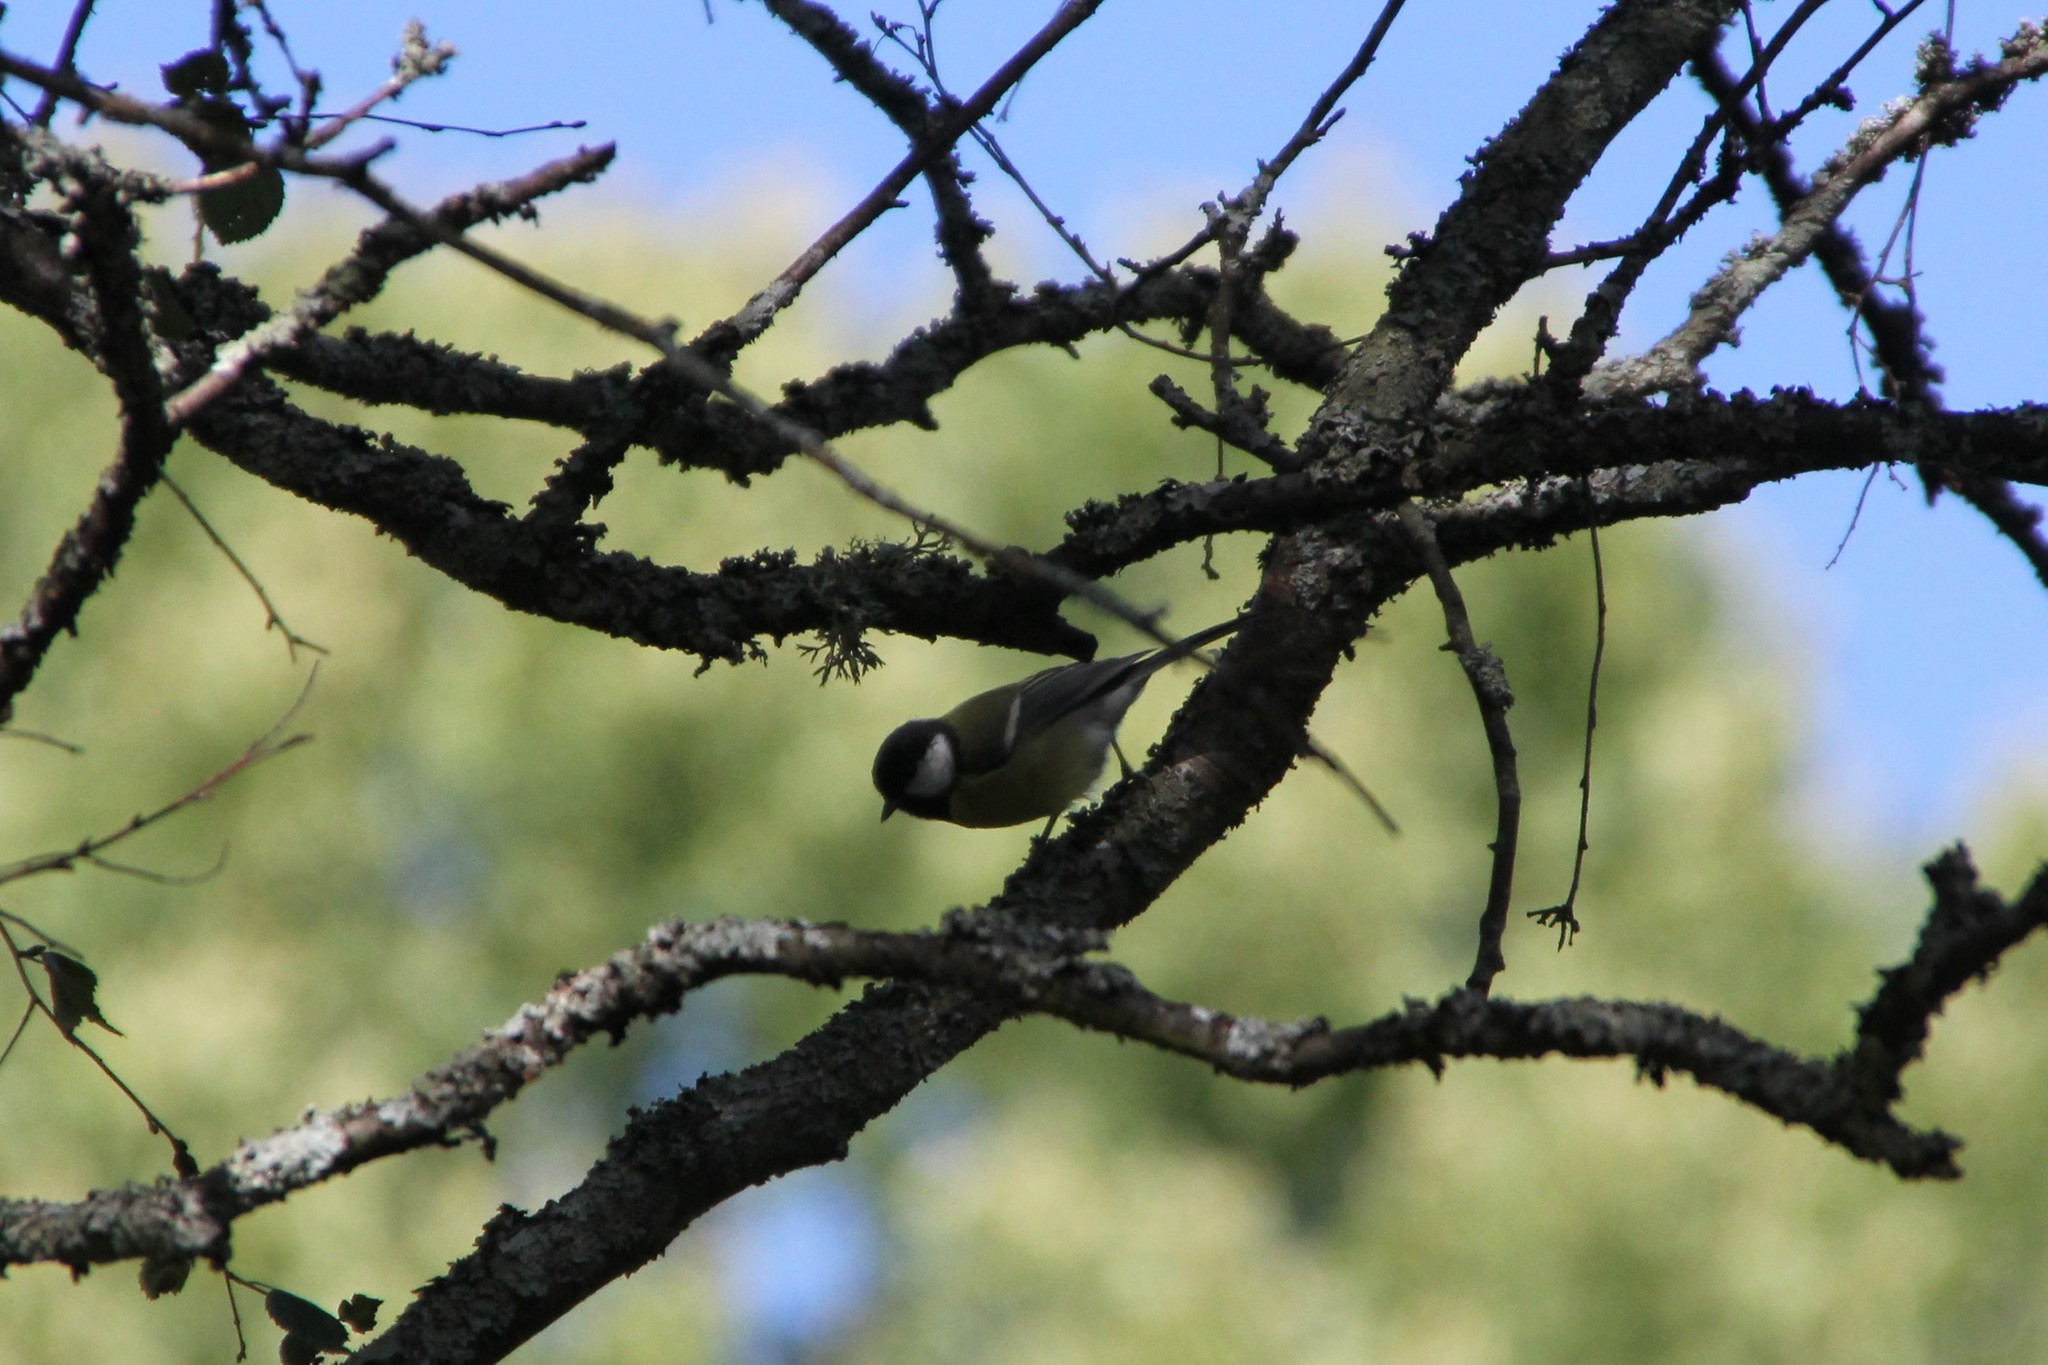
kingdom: Animalia
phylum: Chordata
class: Aves
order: Passeriformes
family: Paridae
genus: Parus
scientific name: Parus major
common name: Great tit
